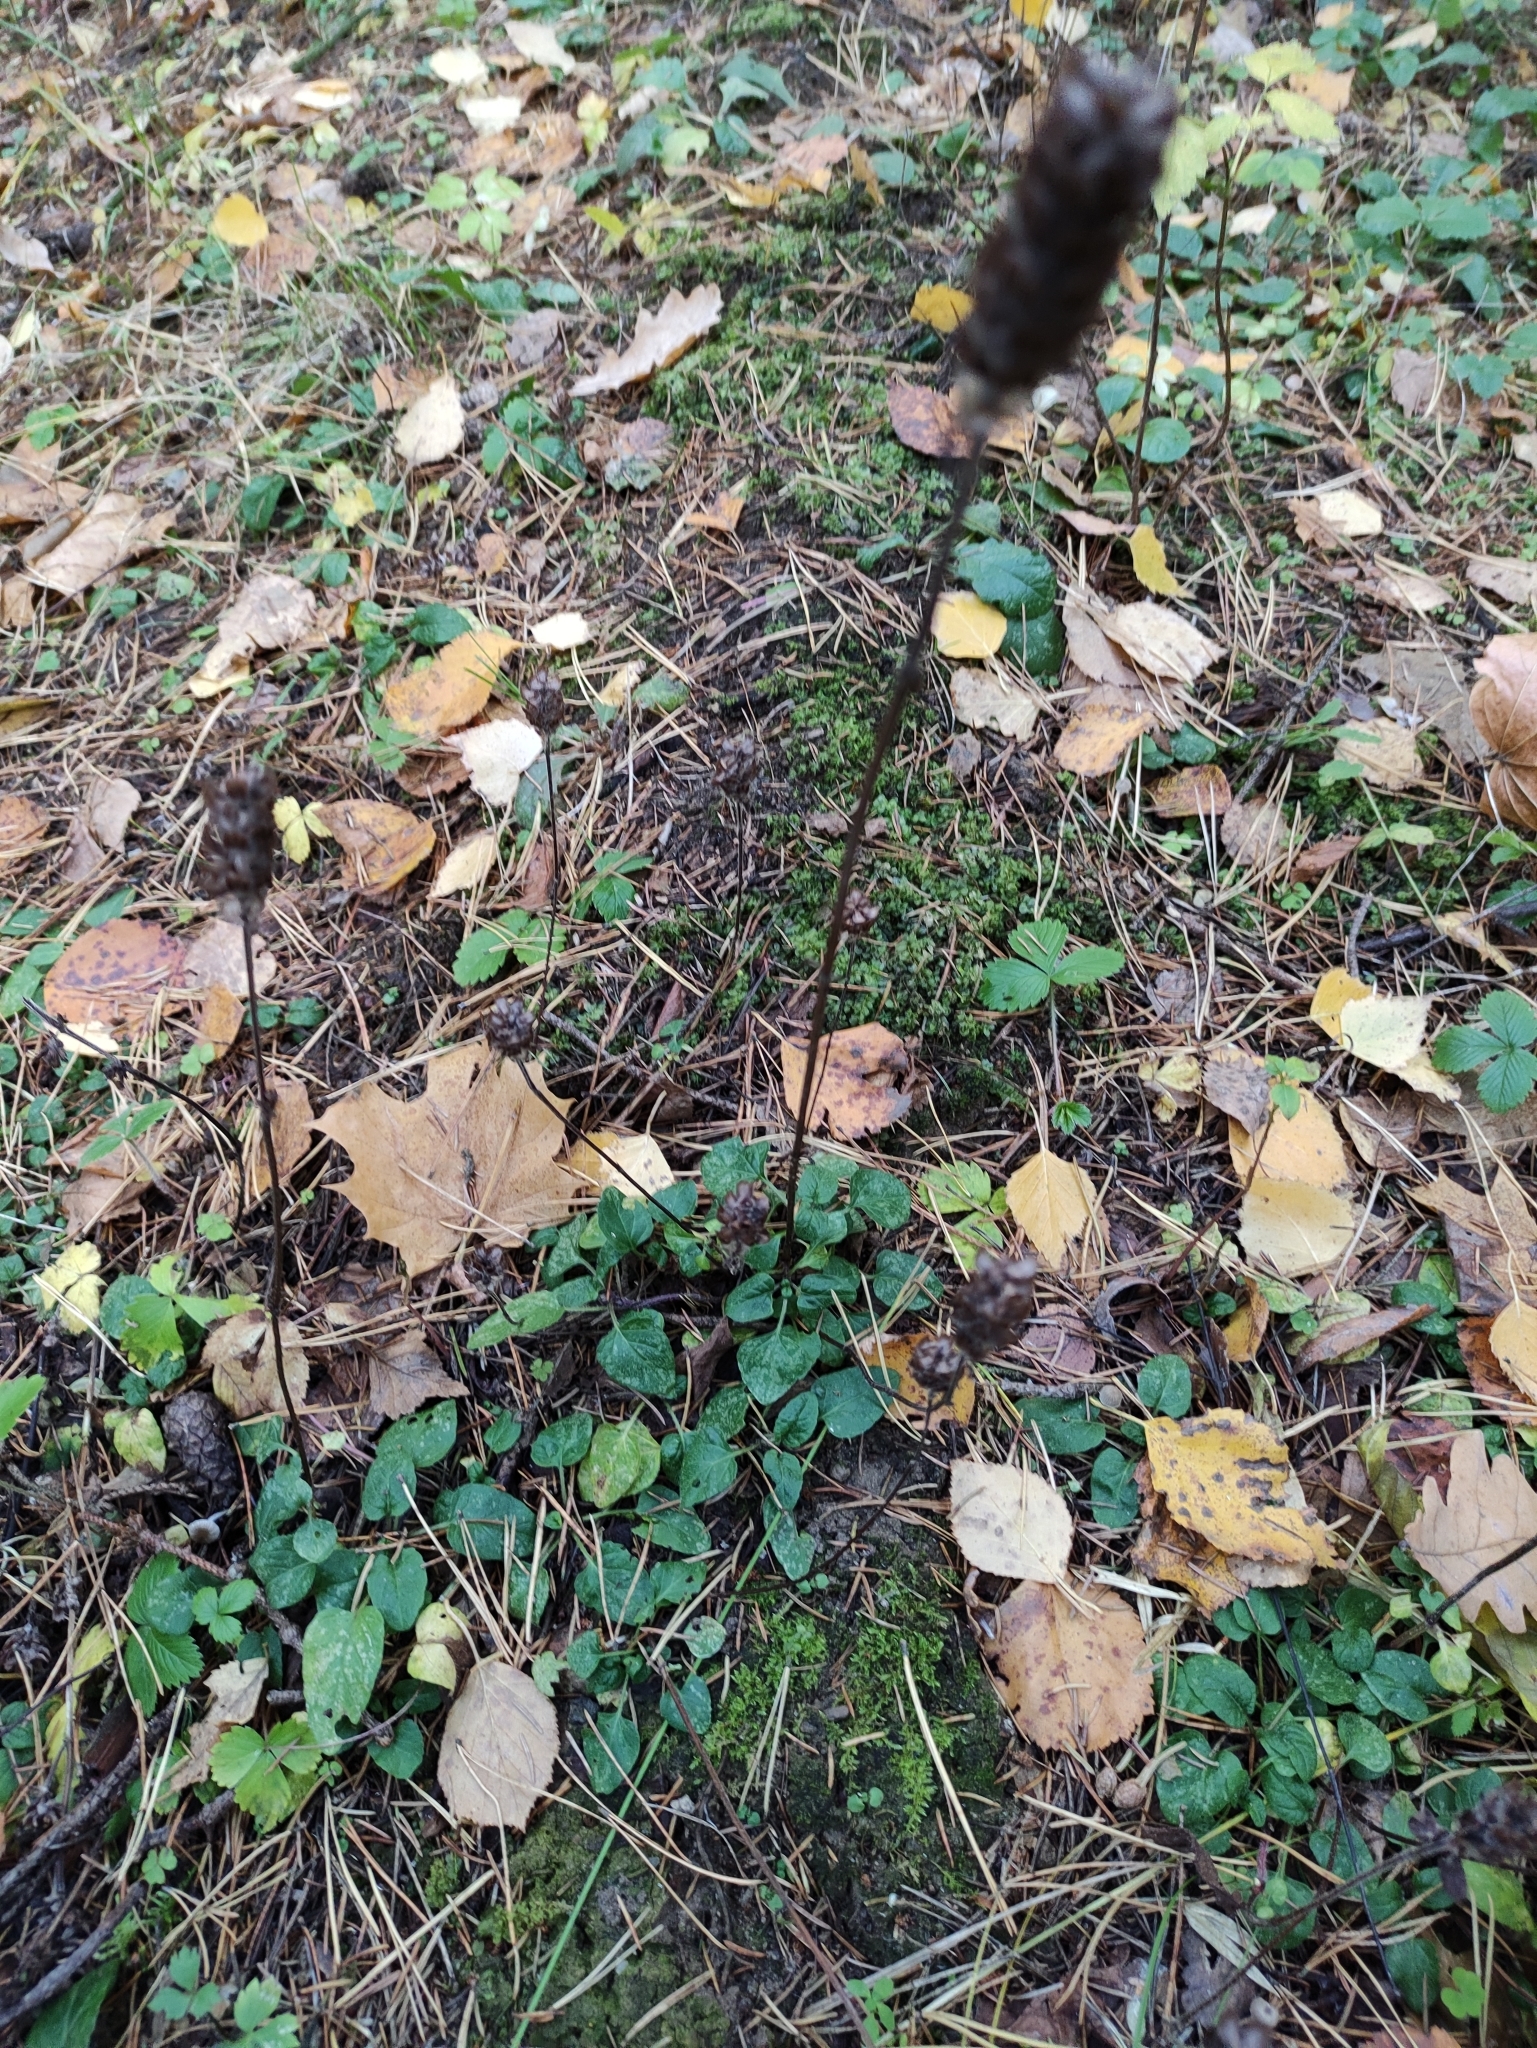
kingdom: Plantae
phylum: Tracheophyta
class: Magnoliopsida
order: Lamiales
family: Lamiaceae
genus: Prunella
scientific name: Prunella vulgaris
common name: Heal-all
